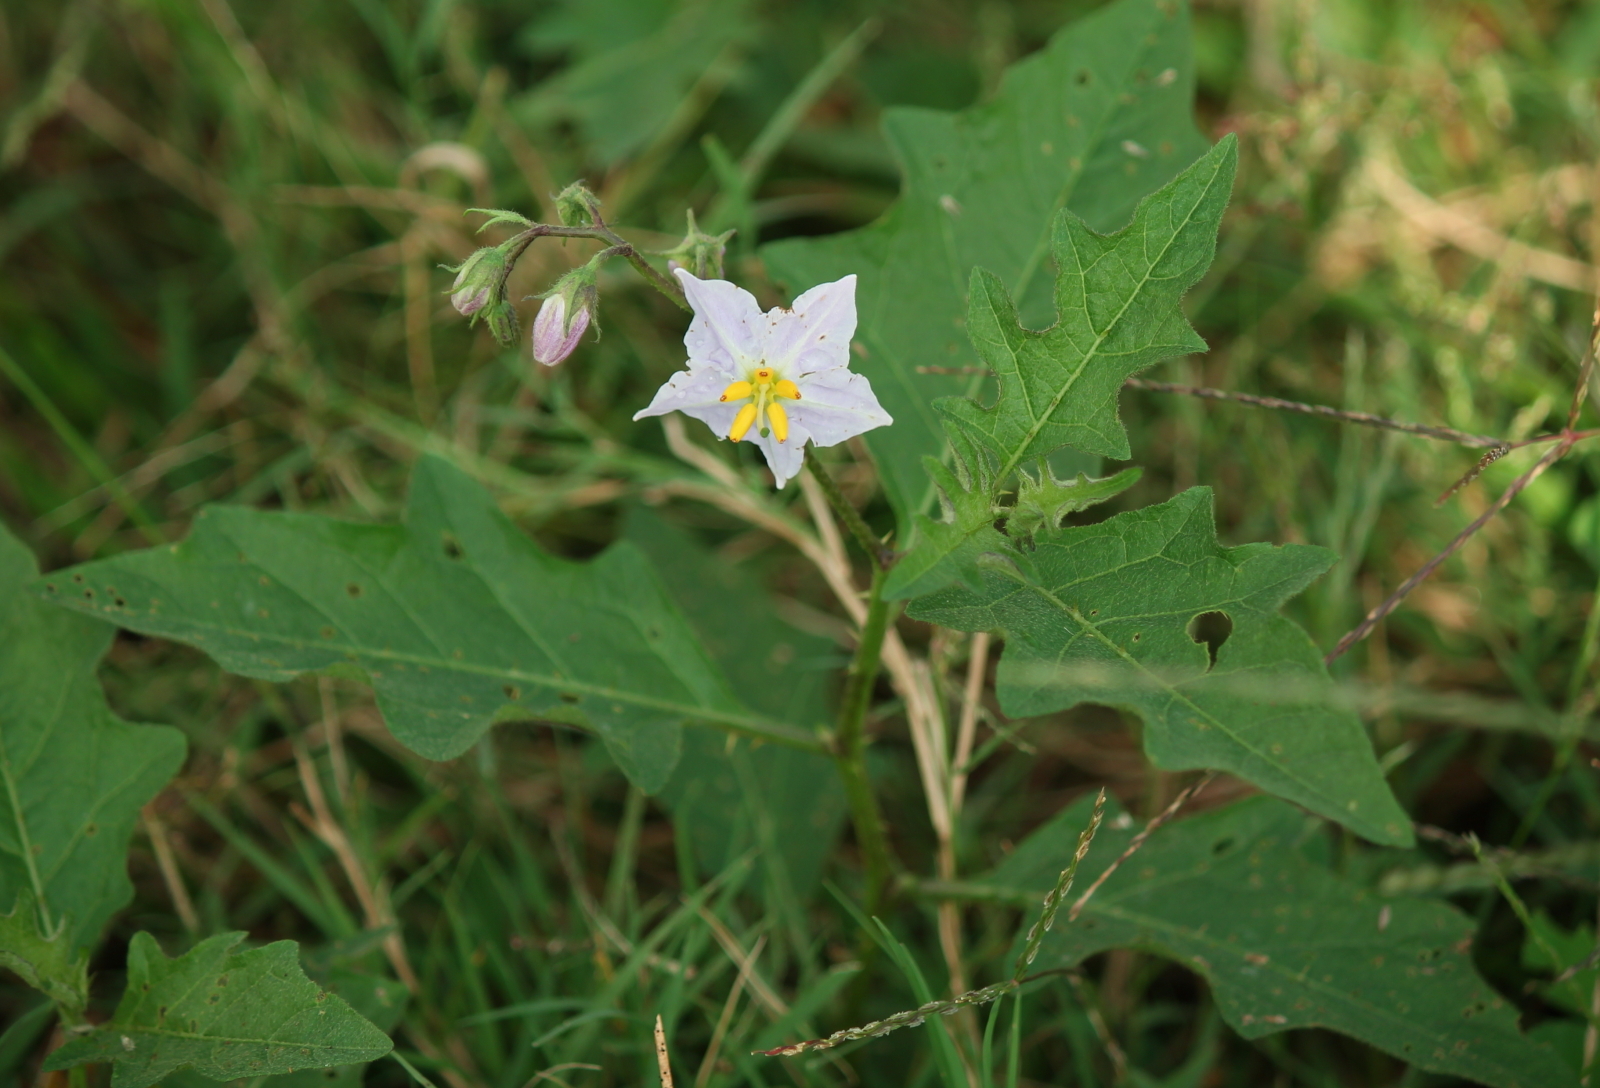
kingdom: Plantae
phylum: Tracheophyta
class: Magnoliopsida
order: Solanales
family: Solanaceae
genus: Solanum
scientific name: Solanum carolinense
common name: Horse-nettle
